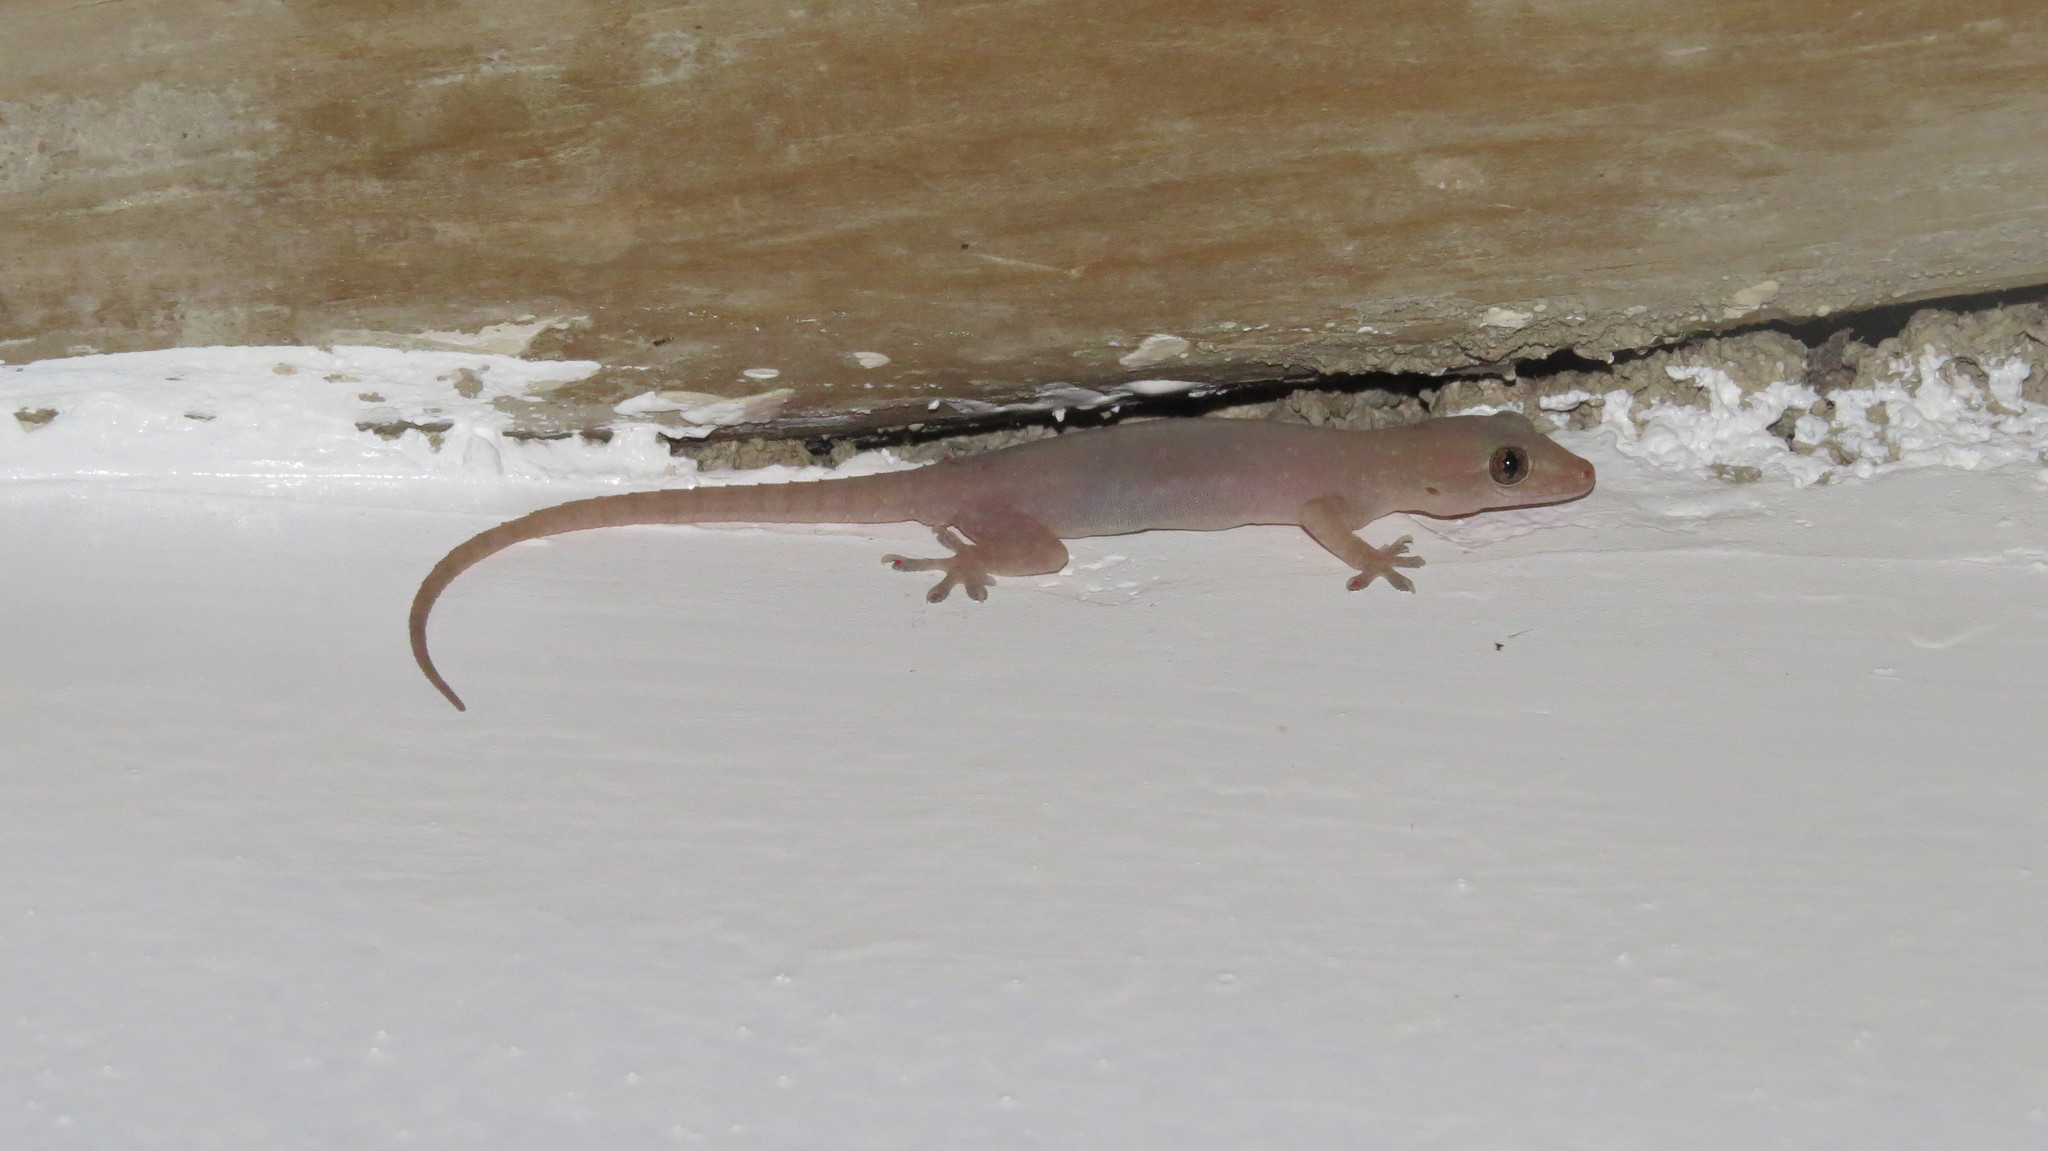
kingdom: Animalia
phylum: Chordata
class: Squamata
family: Gekkonidae
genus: Hemidactylus
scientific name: Hemidactylus frenatus
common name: Common house gecko
